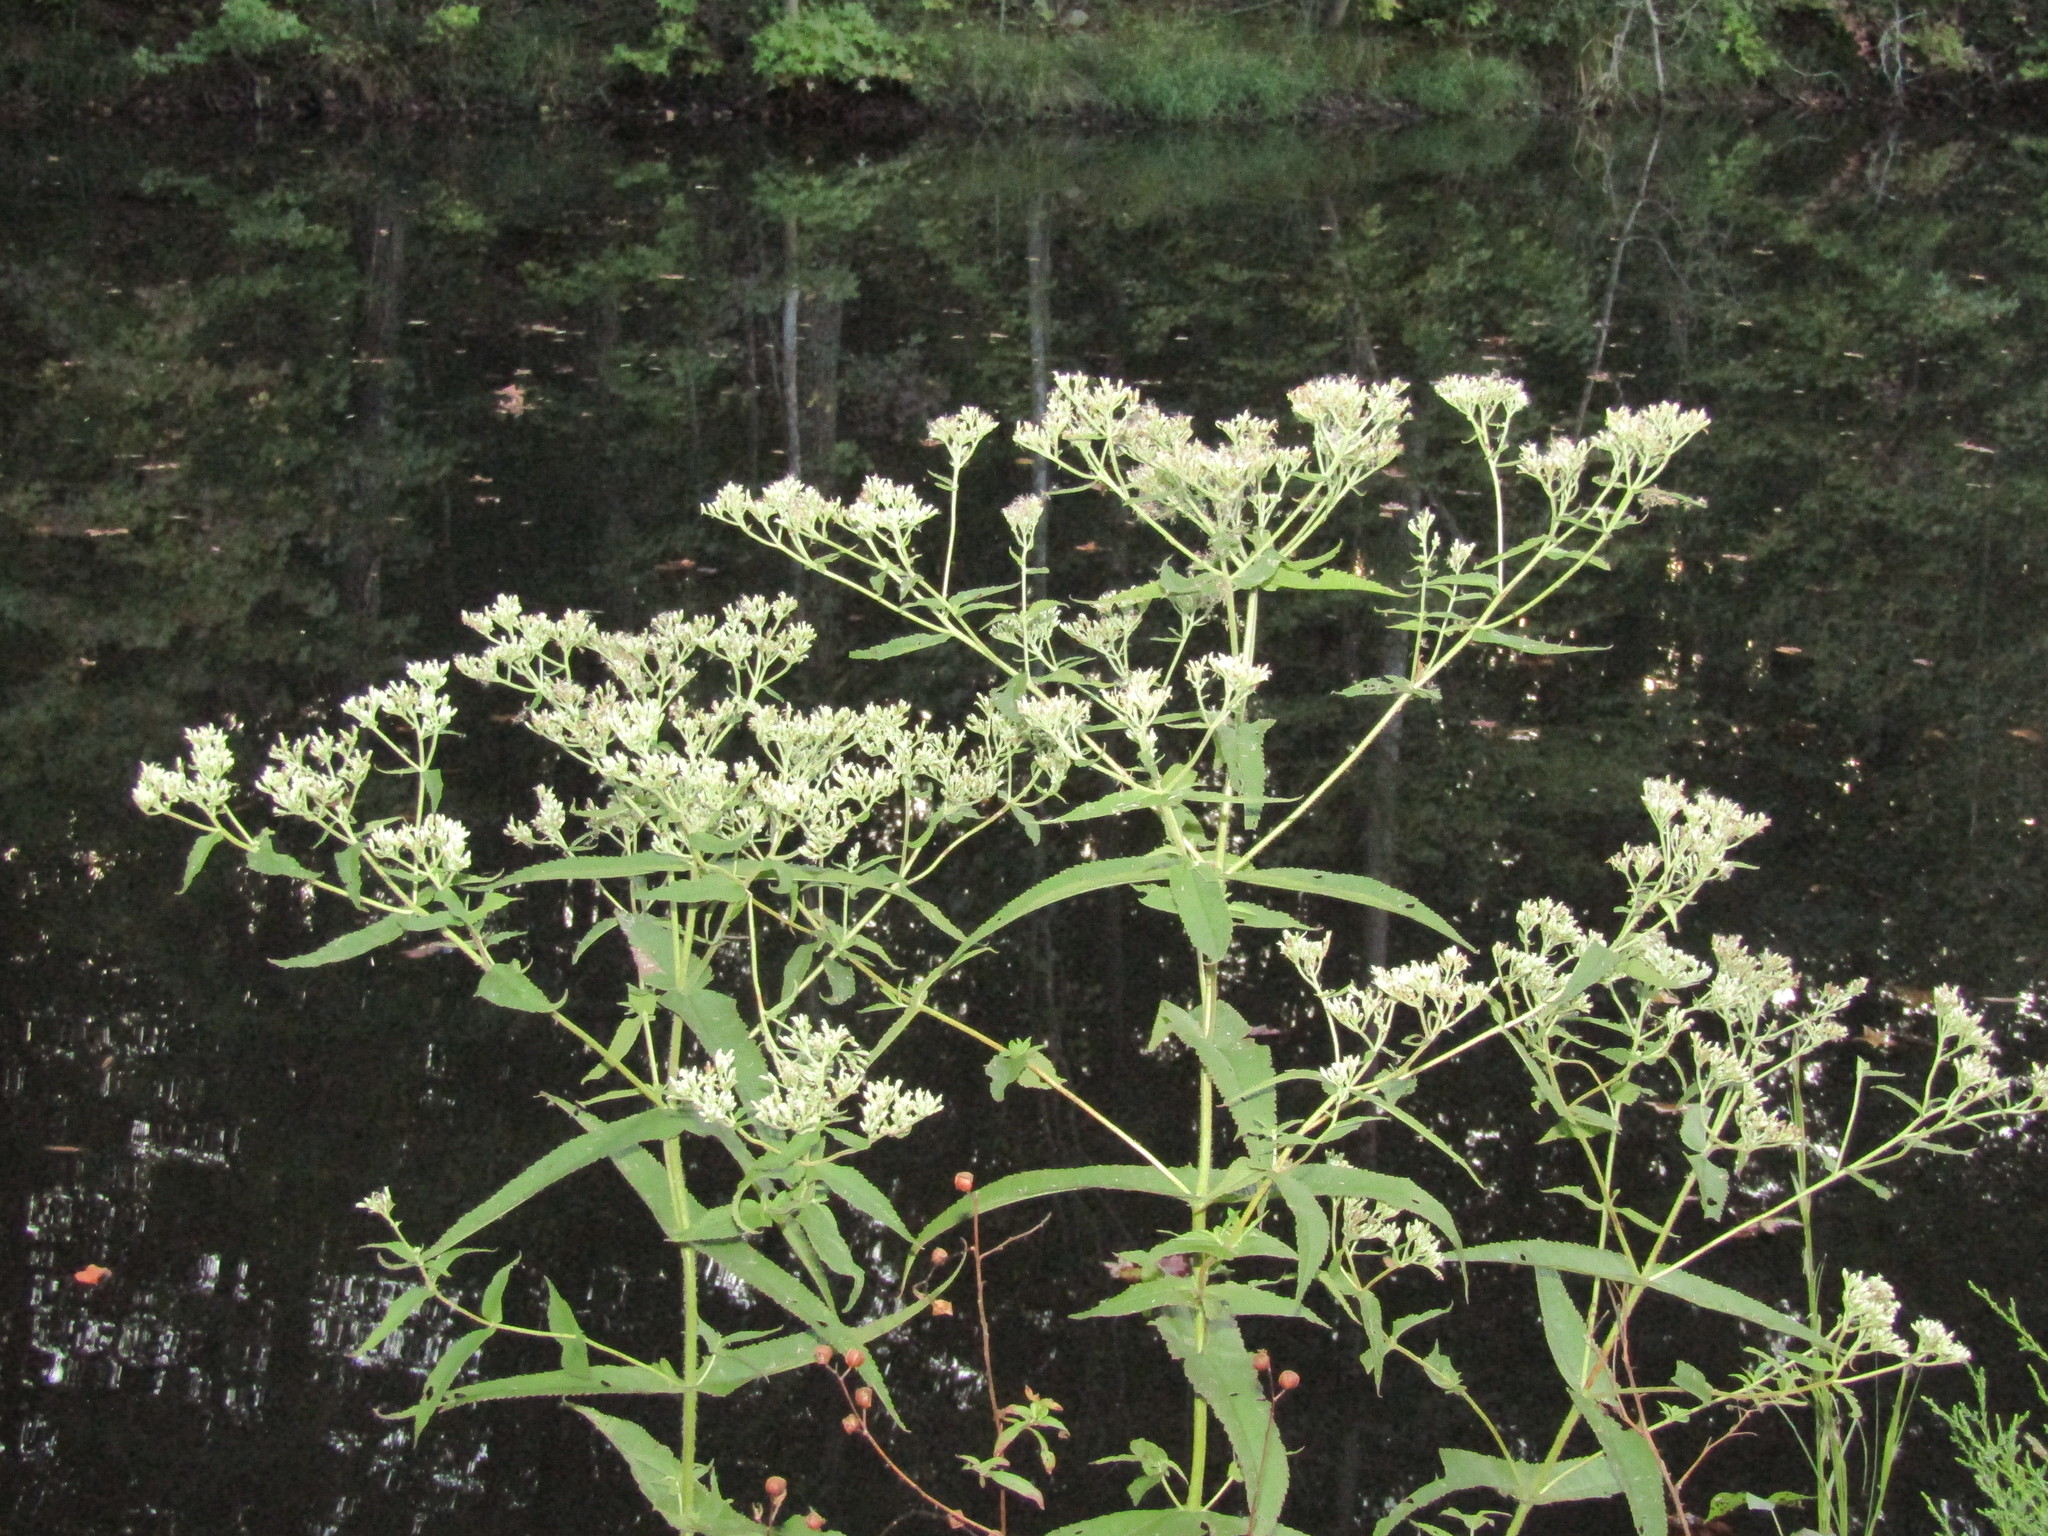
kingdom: Plantae
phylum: Tracheophyta
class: Magnoliopsida
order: Asterales
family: Asteraceae
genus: Eupatorium
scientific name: Eupatorium perfoliatum
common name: Boneset
